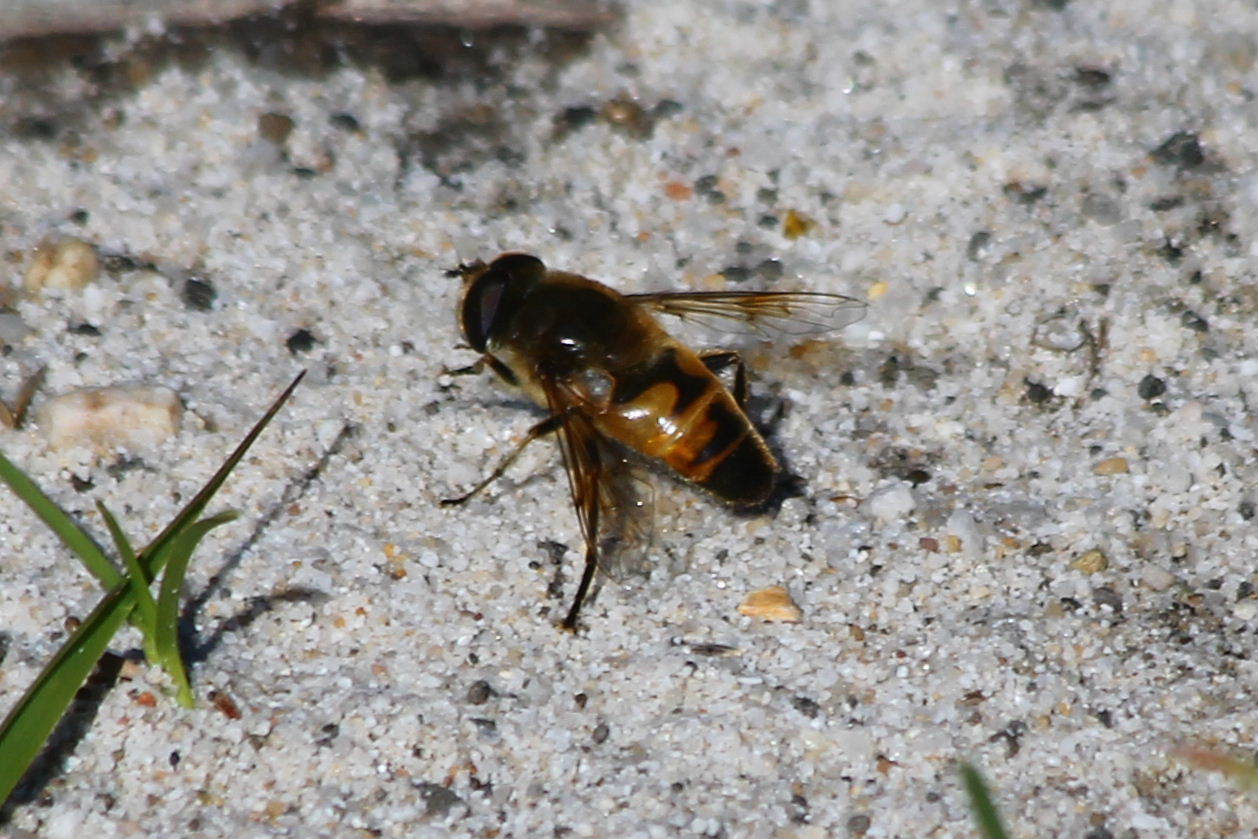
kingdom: Animalia
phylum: Arthropoda
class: Insecta
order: Diptera
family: Syrphidae
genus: Eristalis
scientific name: Eristalis tenax
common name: Drone fly
